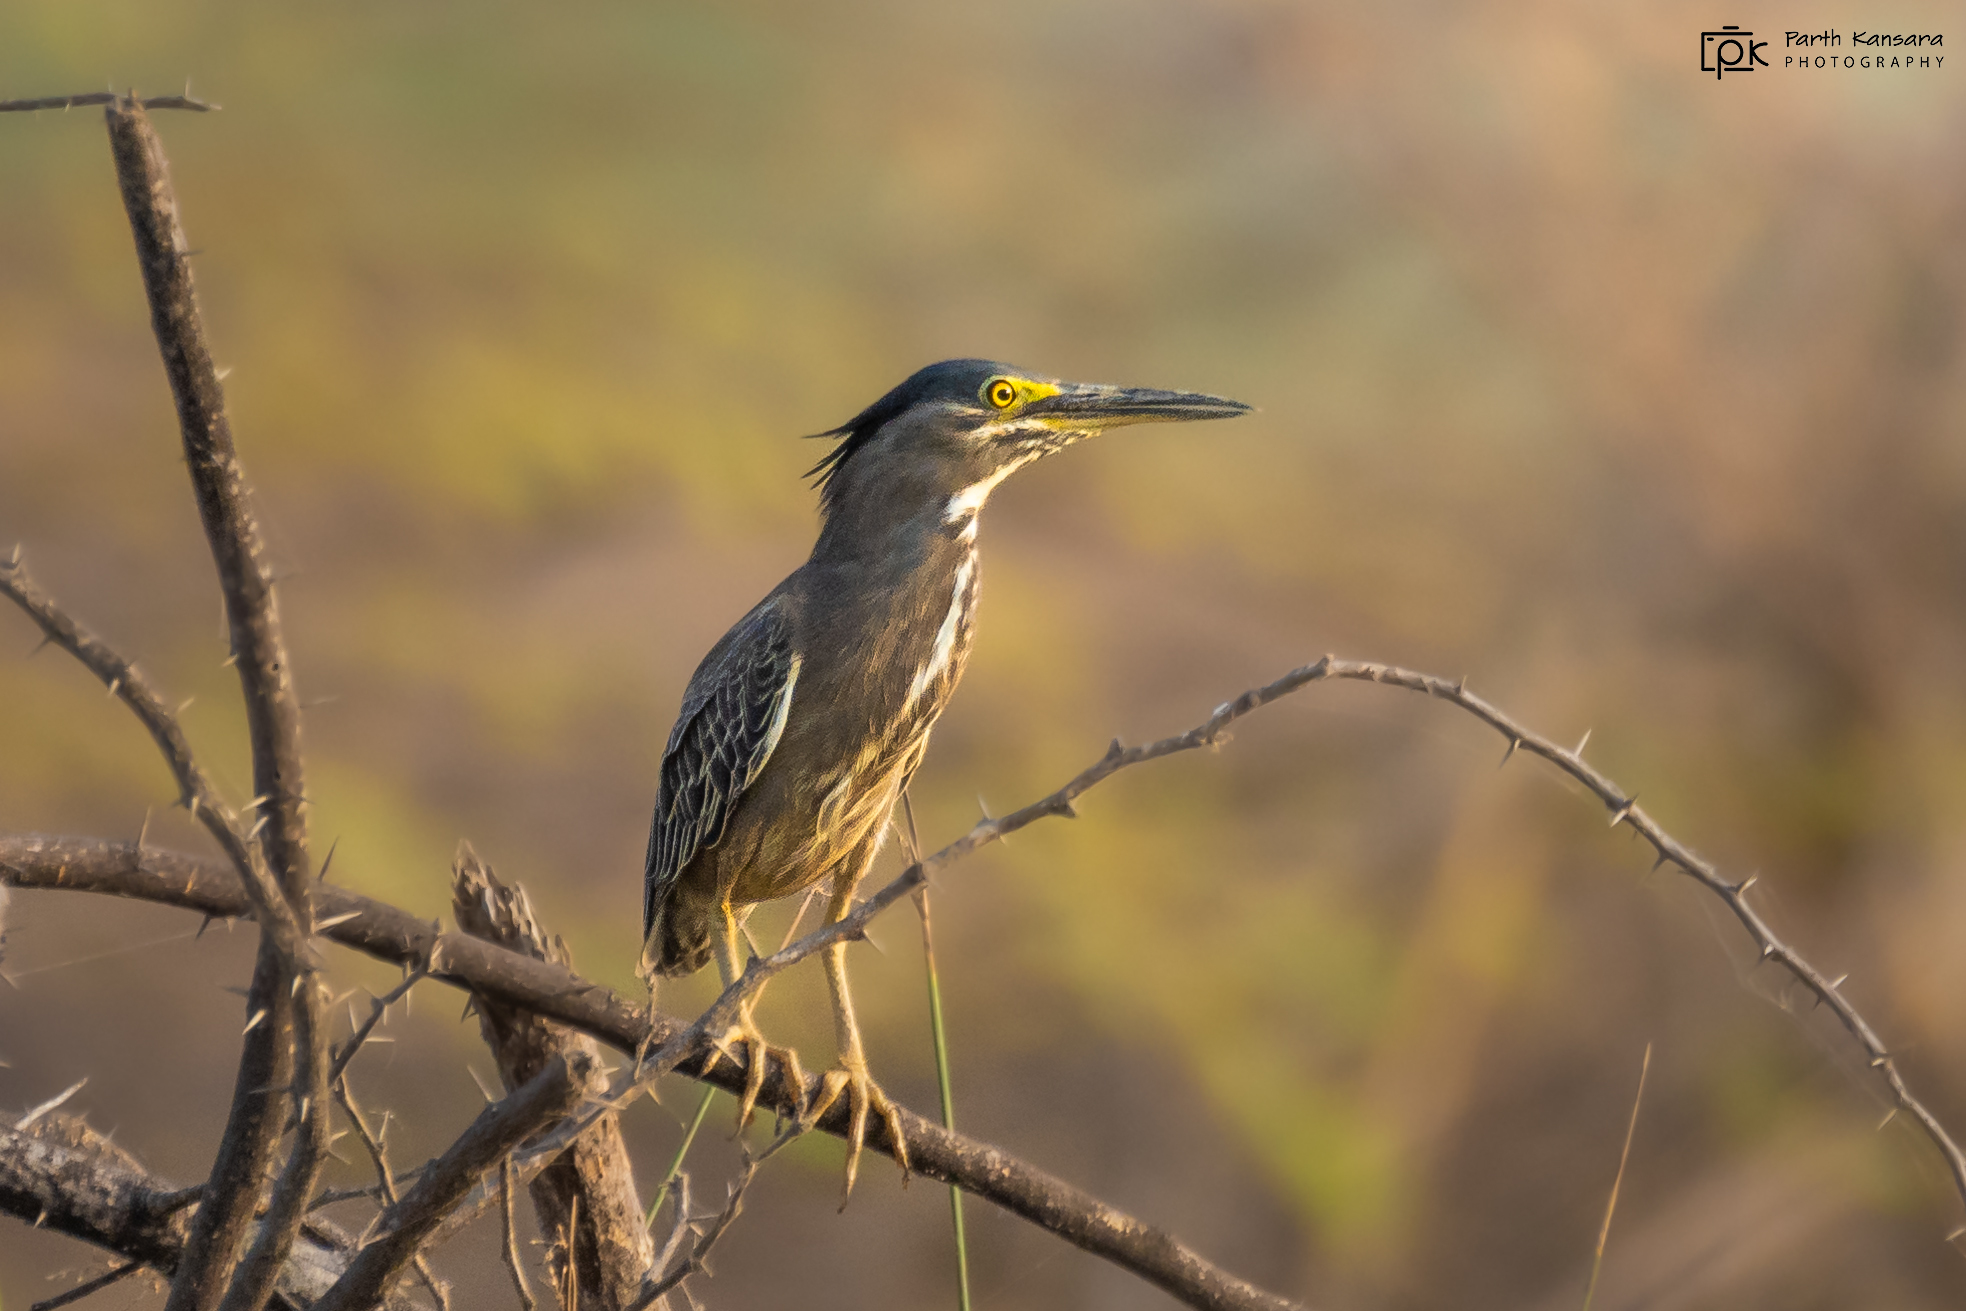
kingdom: Animalia
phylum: Chordata
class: Aves
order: Pelecaniformes
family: Ardeidae
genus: Butorides
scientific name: Butorides striata
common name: Striated heron
